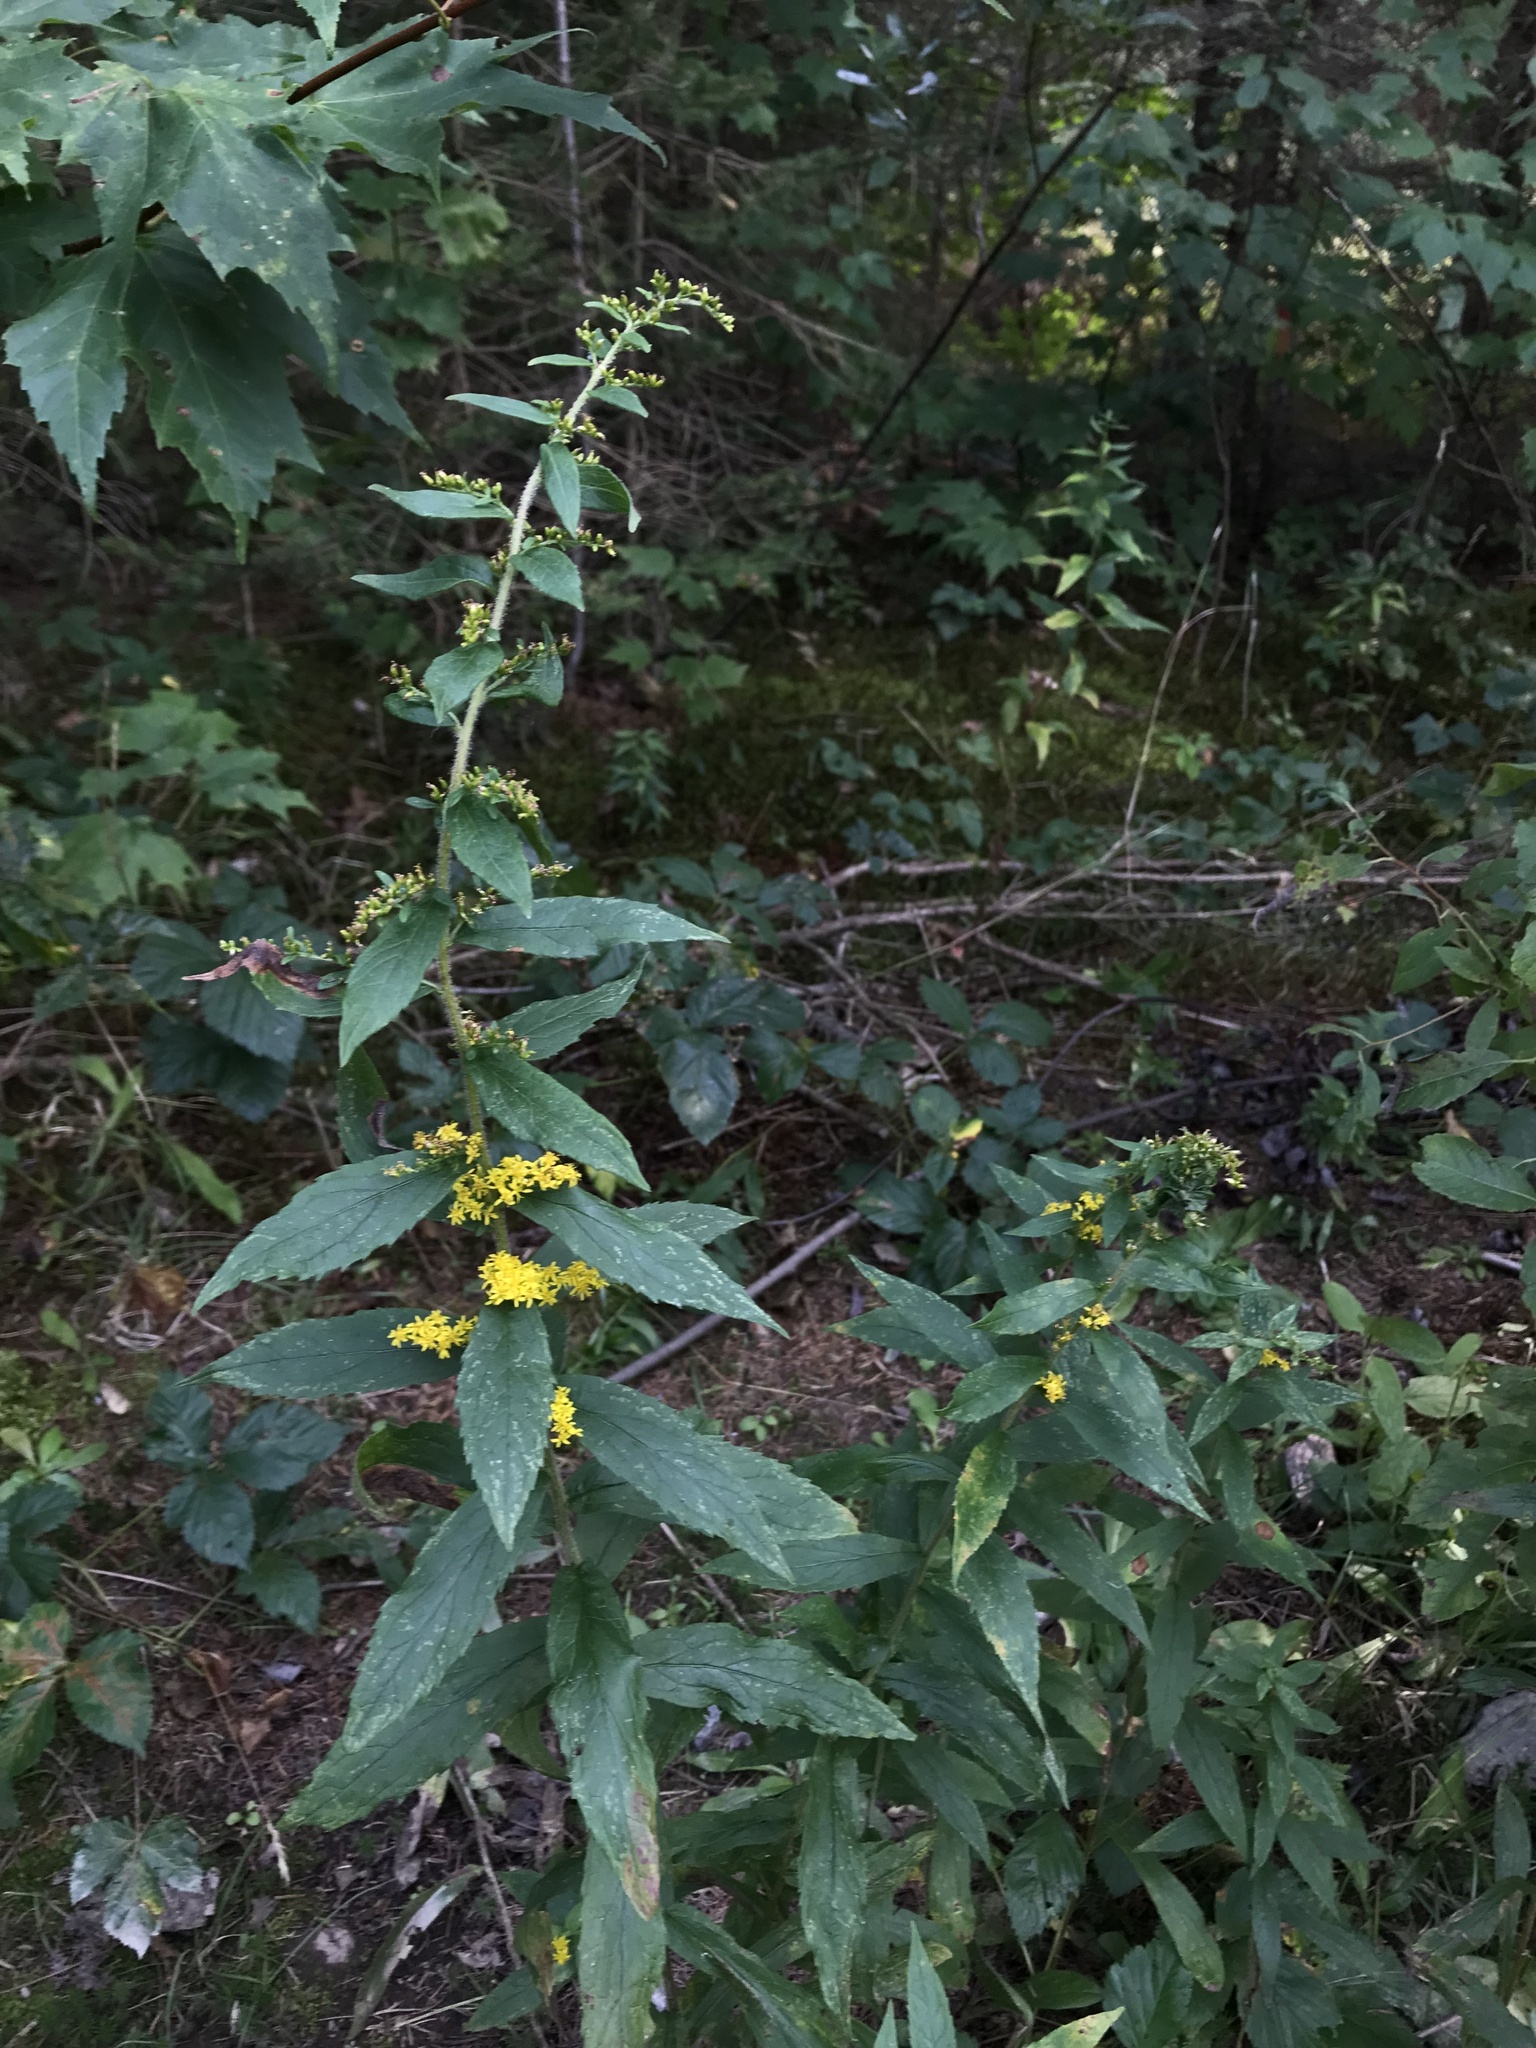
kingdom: Plantae
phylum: Tracheophyta
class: Magnoliopsida
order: Asterales
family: Asteraceae
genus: Solidago
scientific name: Solidago rugosa
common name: Rough-stemmed goldenrod
